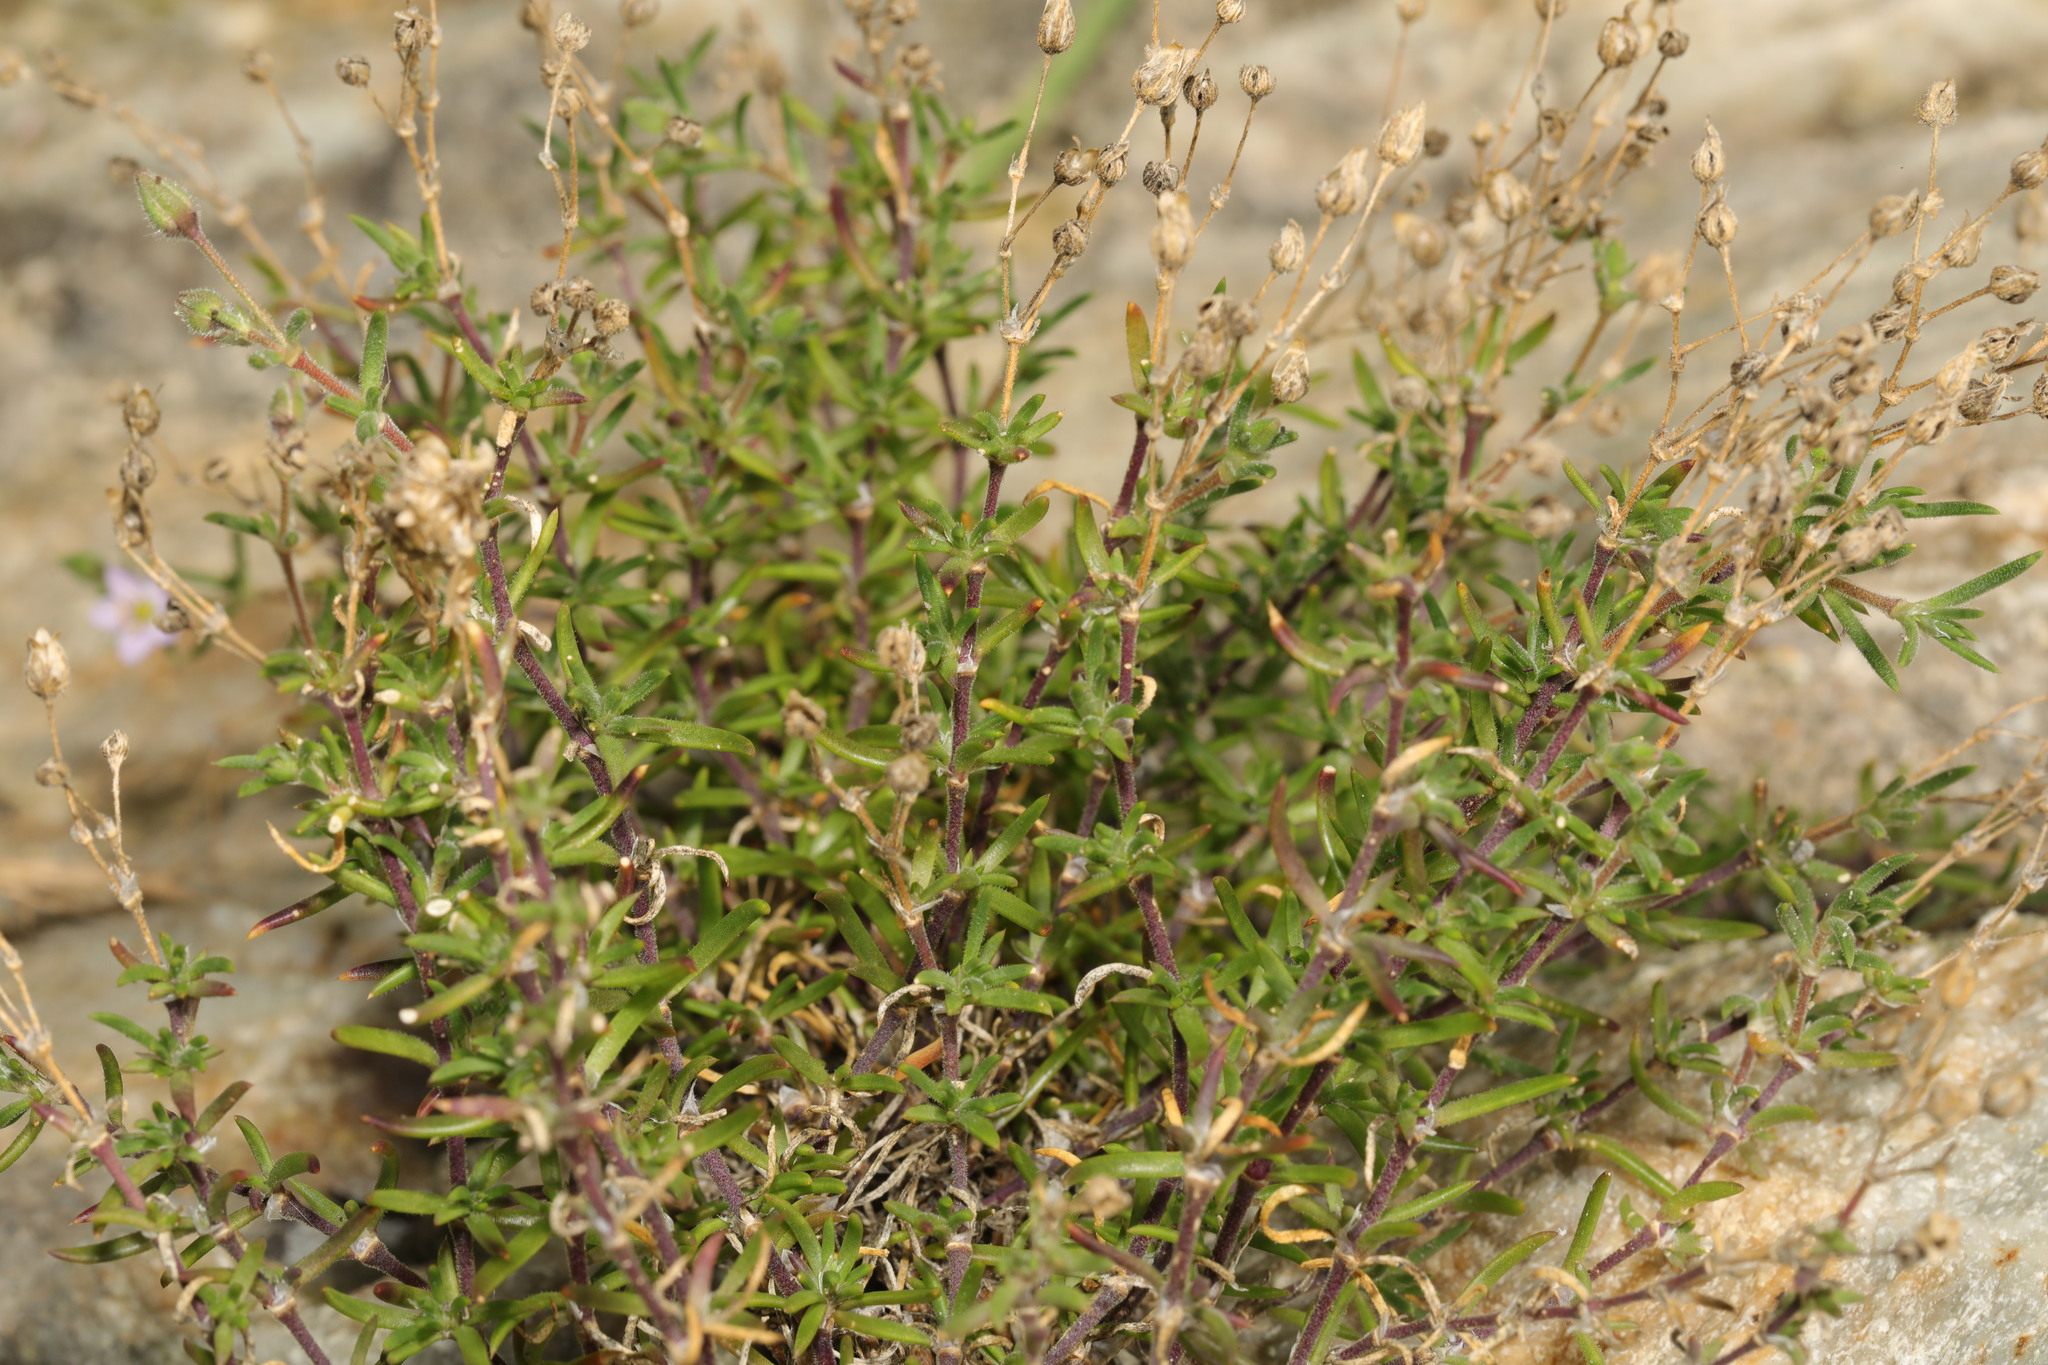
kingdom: Plantae
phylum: Tracheophyta
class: Magnoliopsida
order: Caryophyllales
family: Caryophyllaceae
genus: Spergularia
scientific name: Spergularia rupicola
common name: Cliff sand-spurrey
